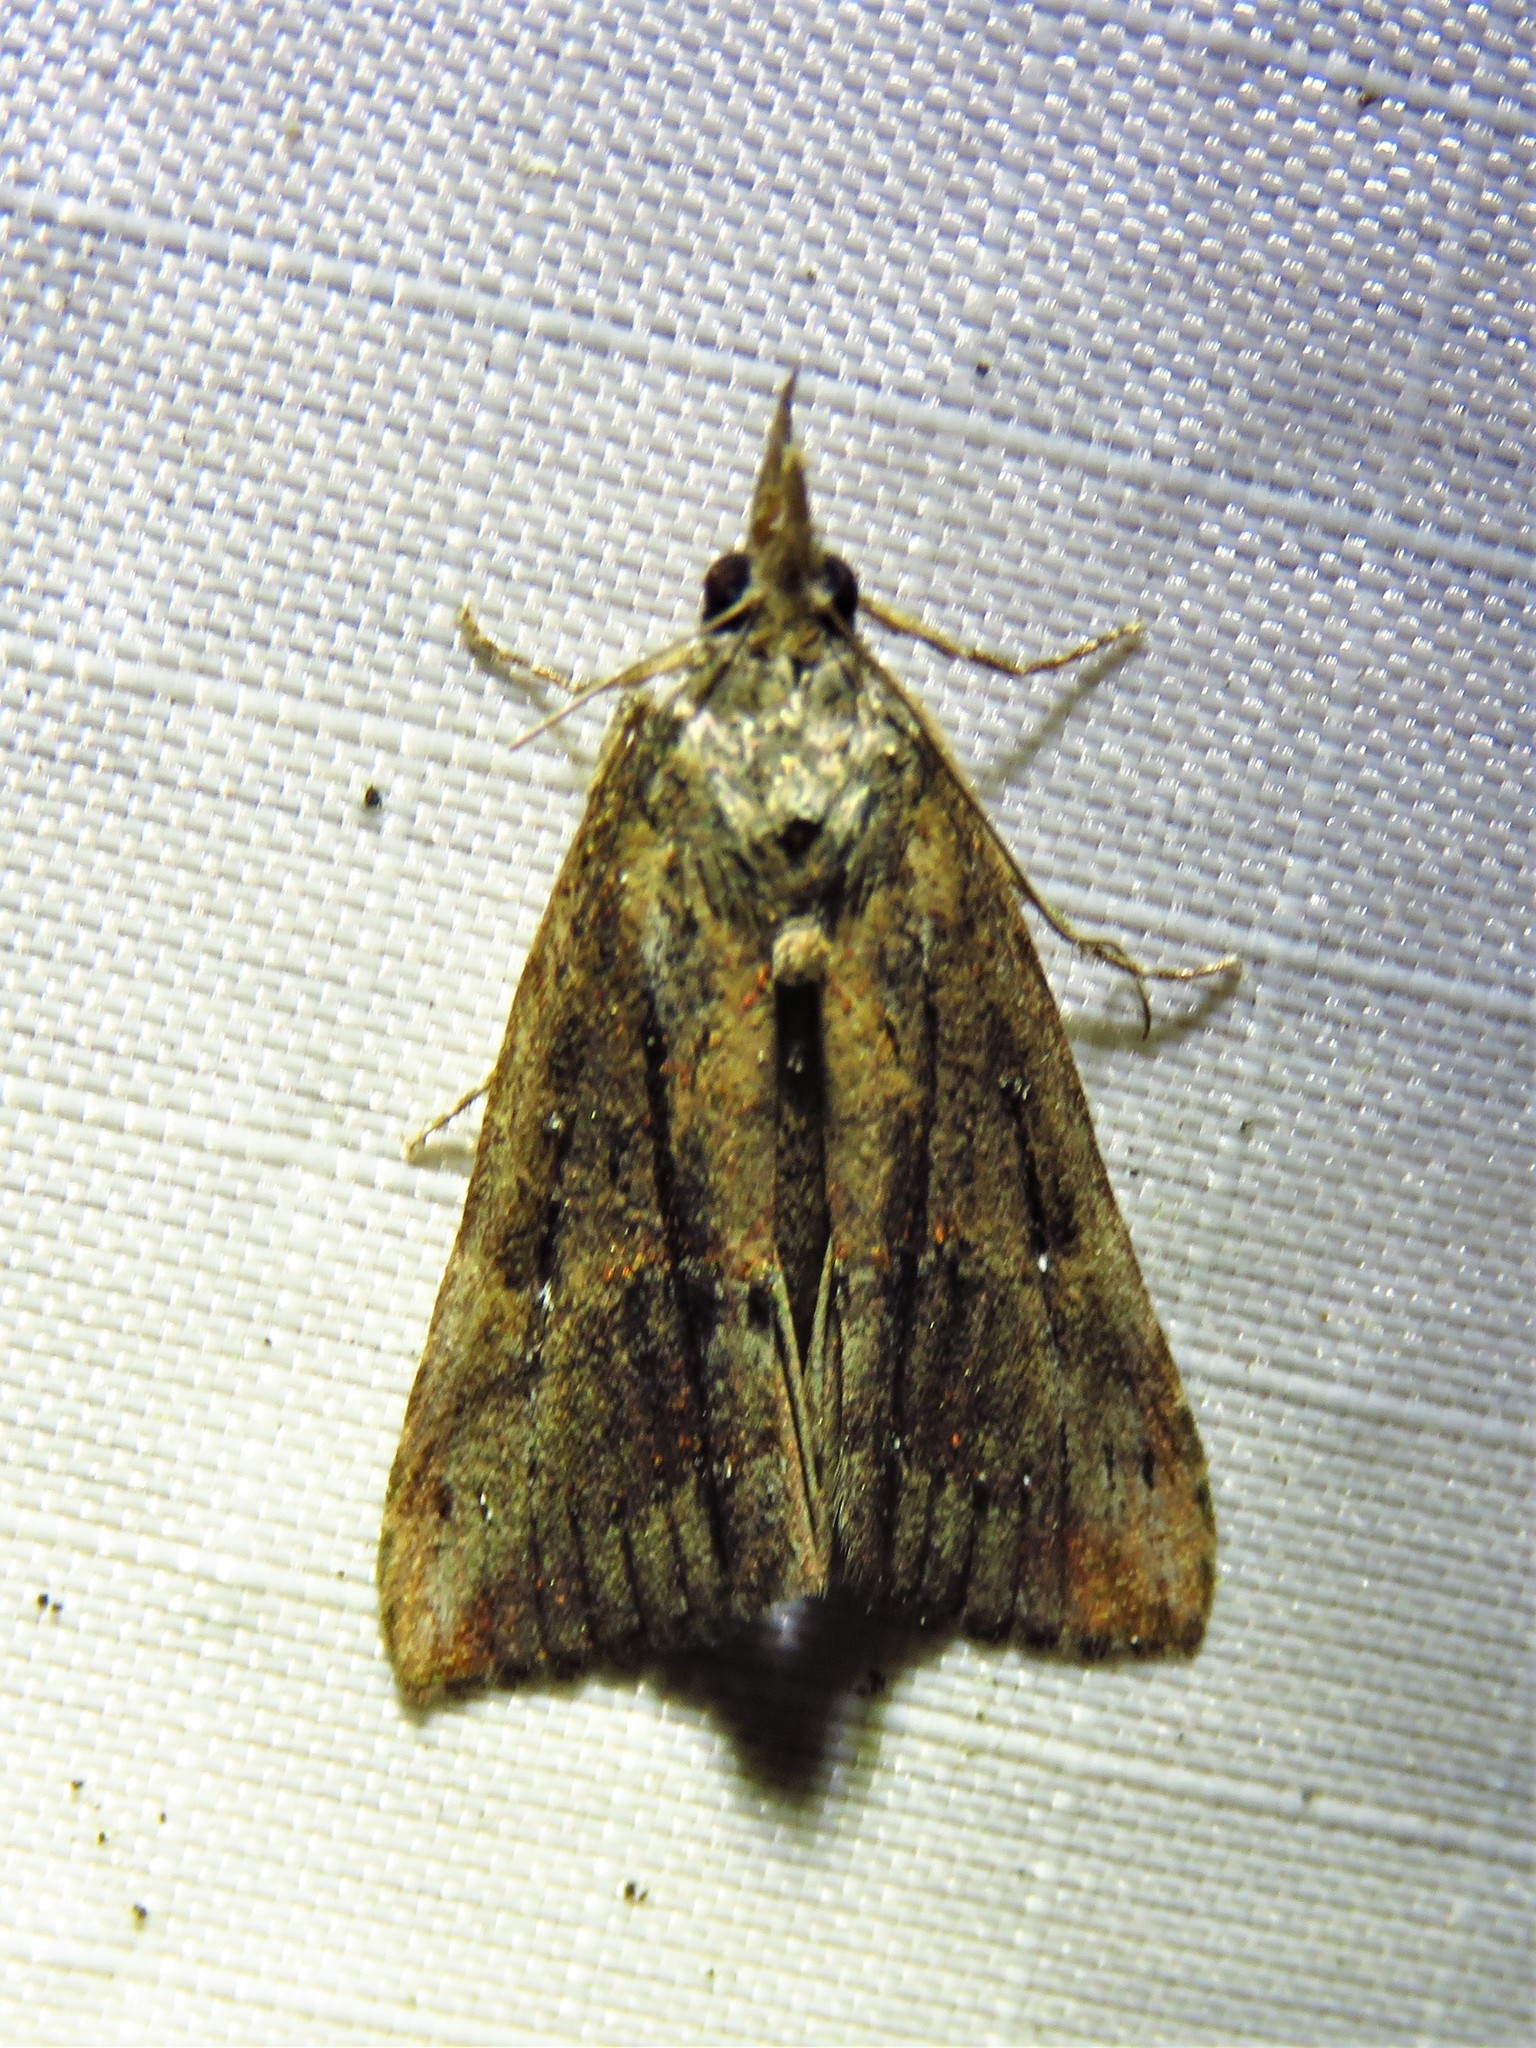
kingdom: Animalia
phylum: Arthropoda
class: Insecta
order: Lepidoptera
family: Erebidae
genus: Hypena
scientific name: Hypena scabra
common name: Green cloverworm
